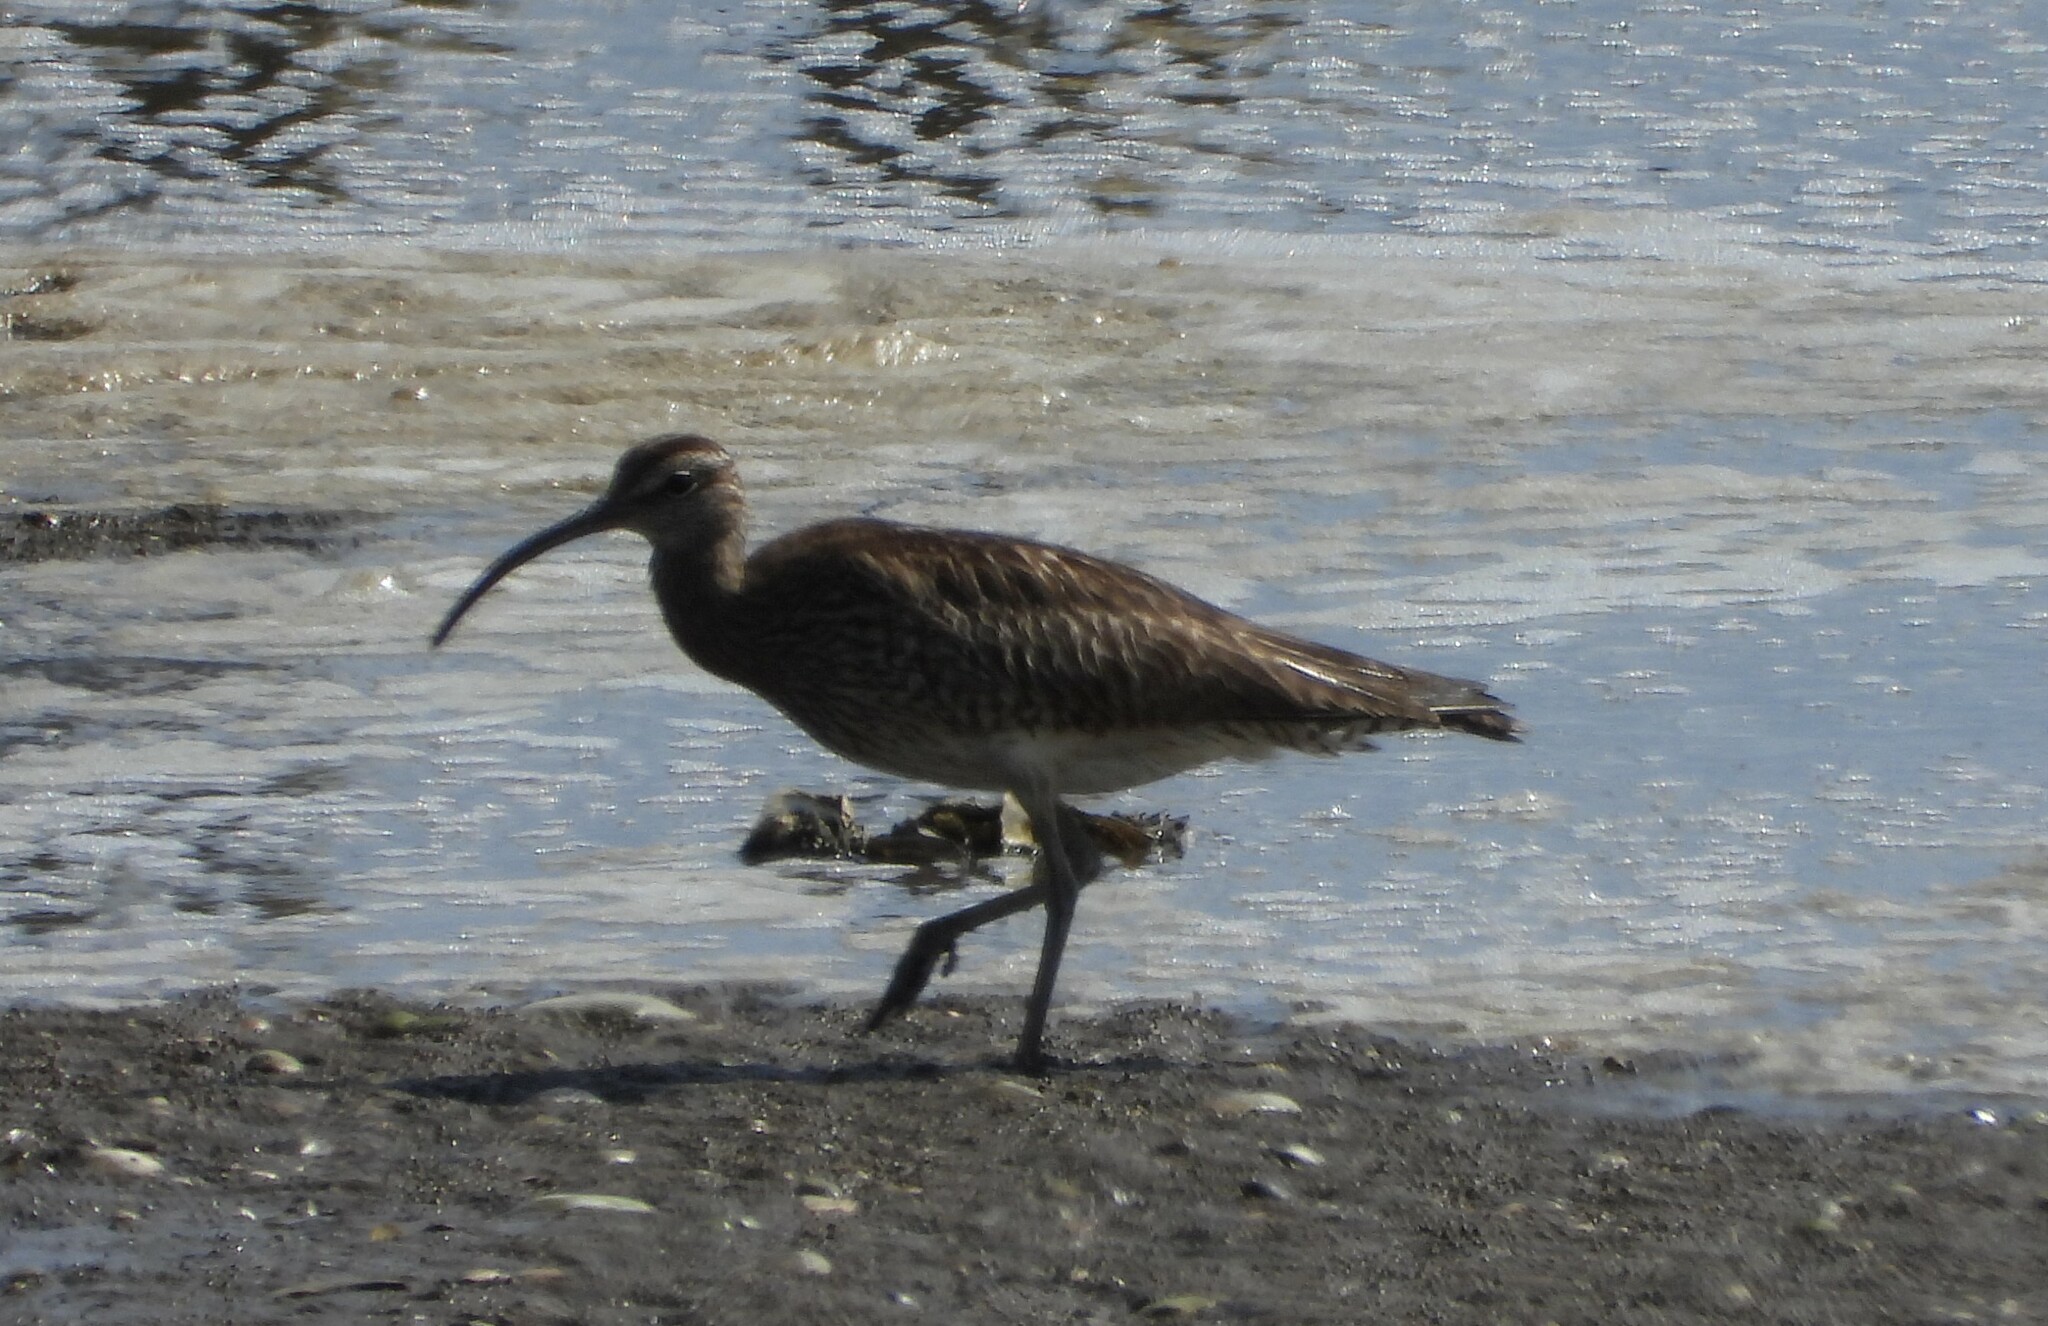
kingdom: Animalia
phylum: Chordata
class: Aves
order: Charadriiformes
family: Scolopacidae
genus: Numenius
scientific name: Numenius phaeopus
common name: Whimbrel
